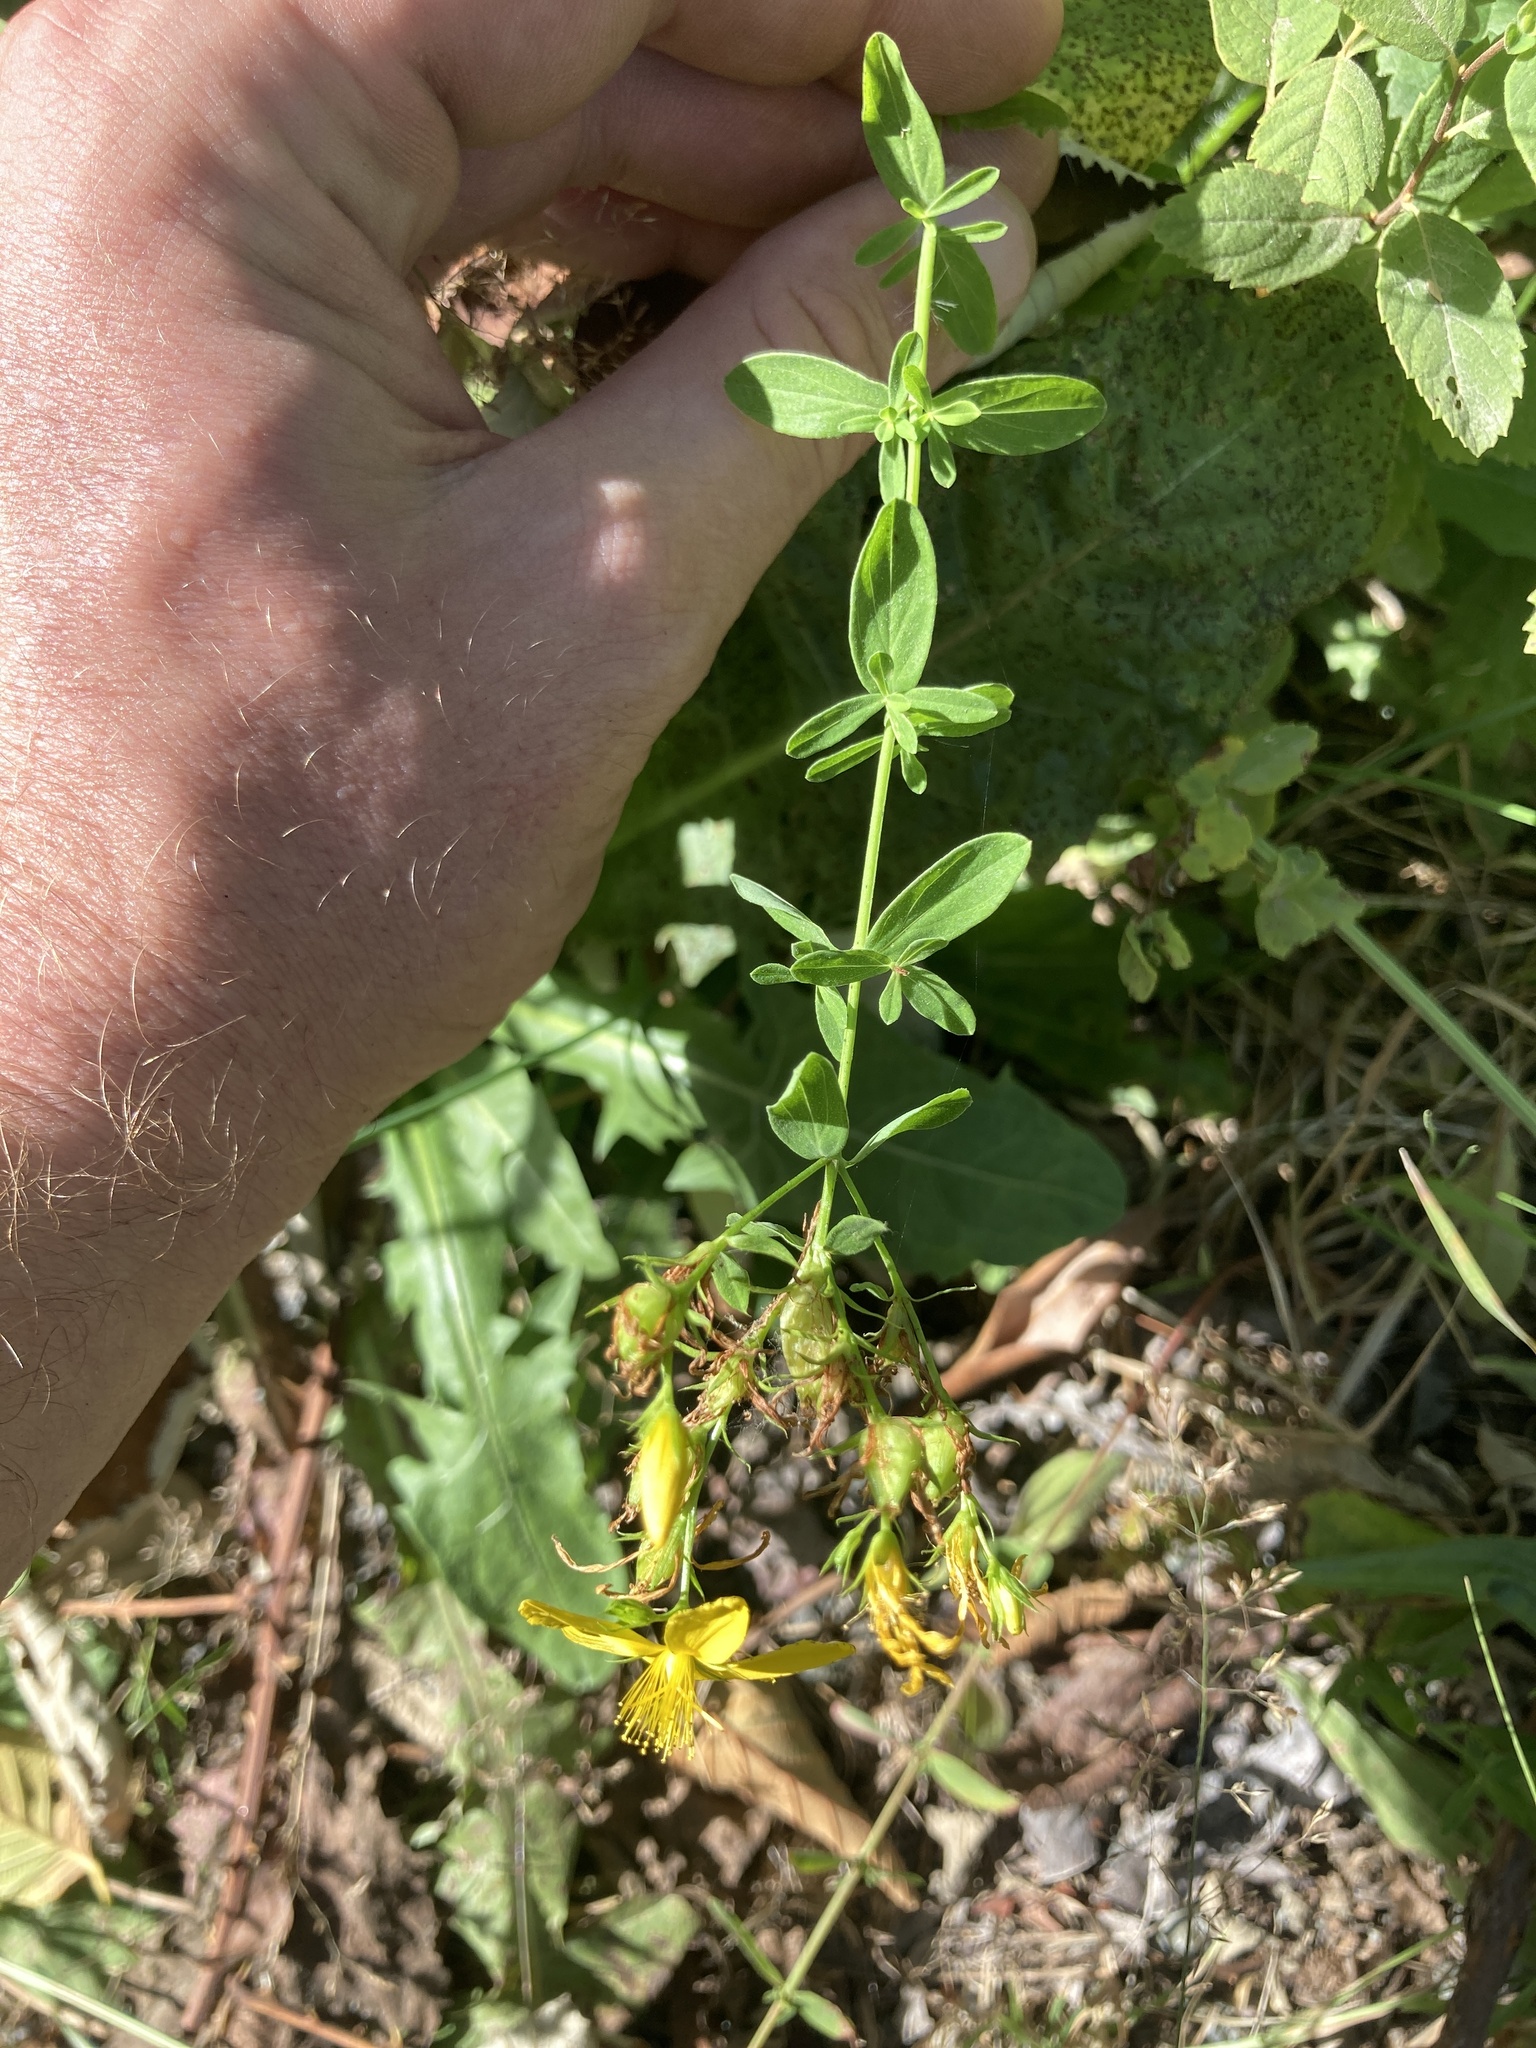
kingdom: Plantae
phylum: Tracheophyta
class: Magnoliopsida
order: Malpighiales
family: Hypericaceae
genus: Hypericum
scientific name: Hypericum perforatum
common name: Common st. johnswort
